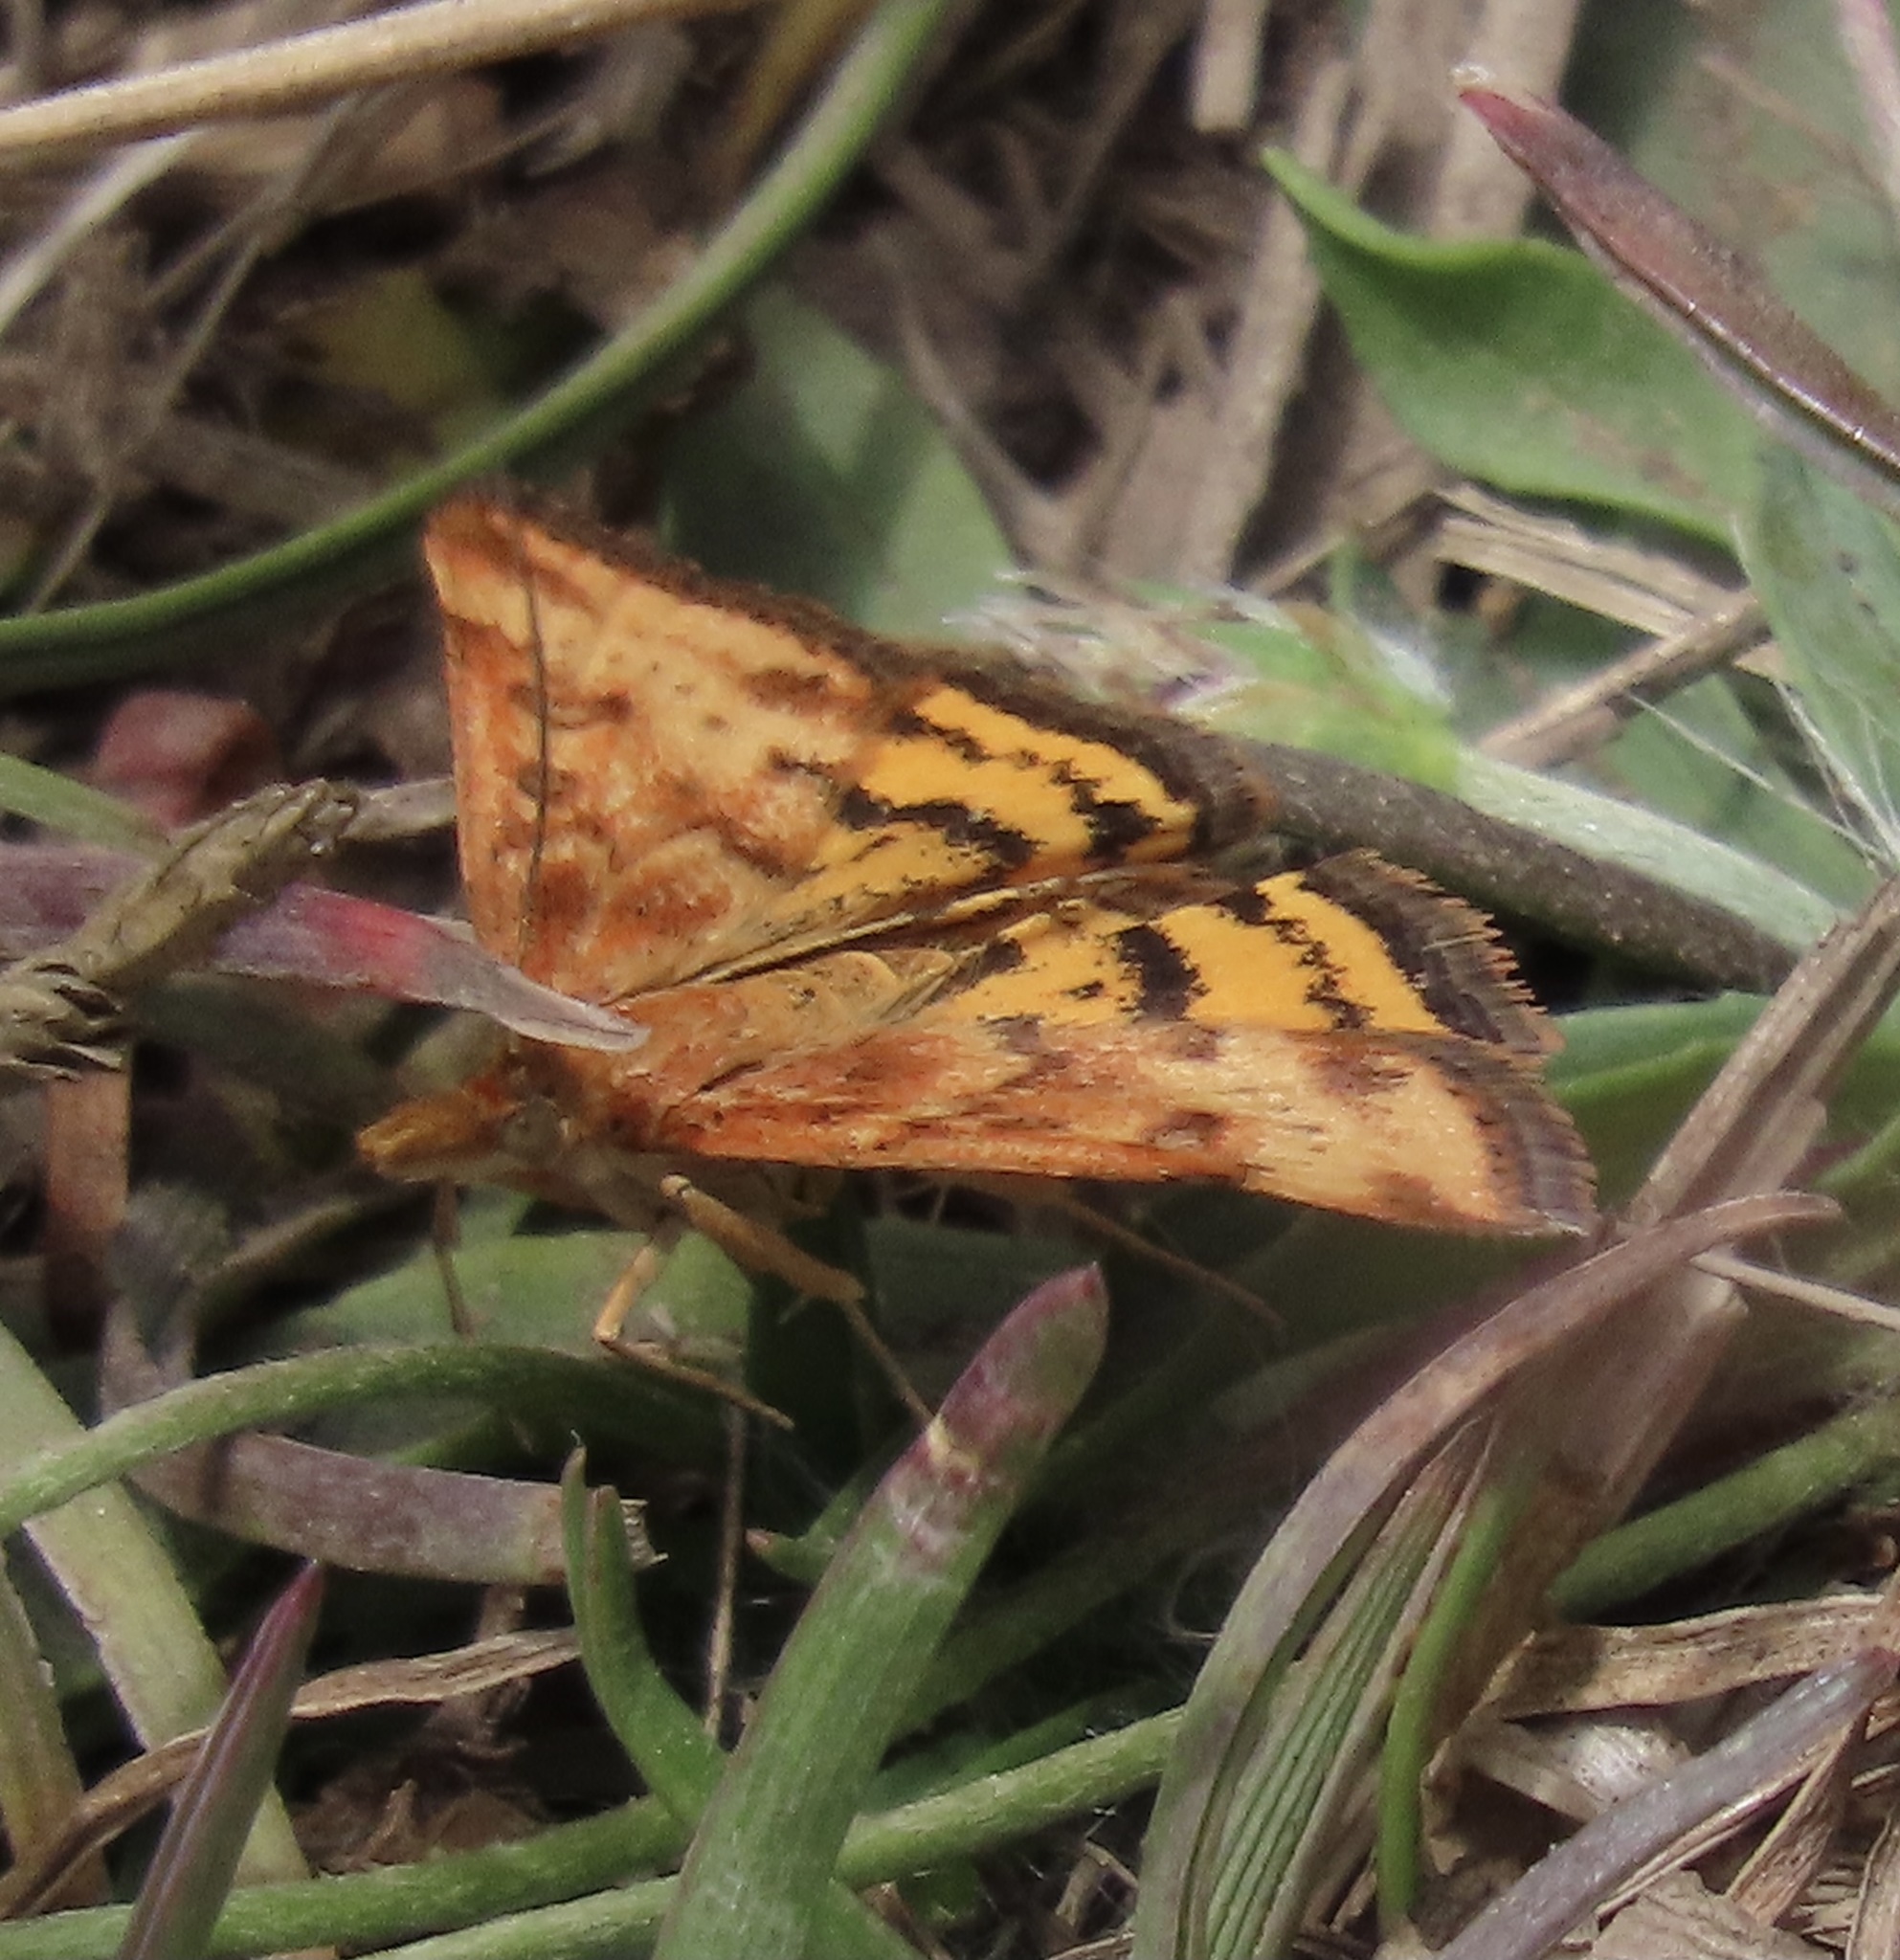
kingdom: Animalia
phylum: Arthropoda
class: Insecta
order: Lepidoptera
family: Crambidae
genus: Pyrausta
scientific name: Pyrausta subsequalis
